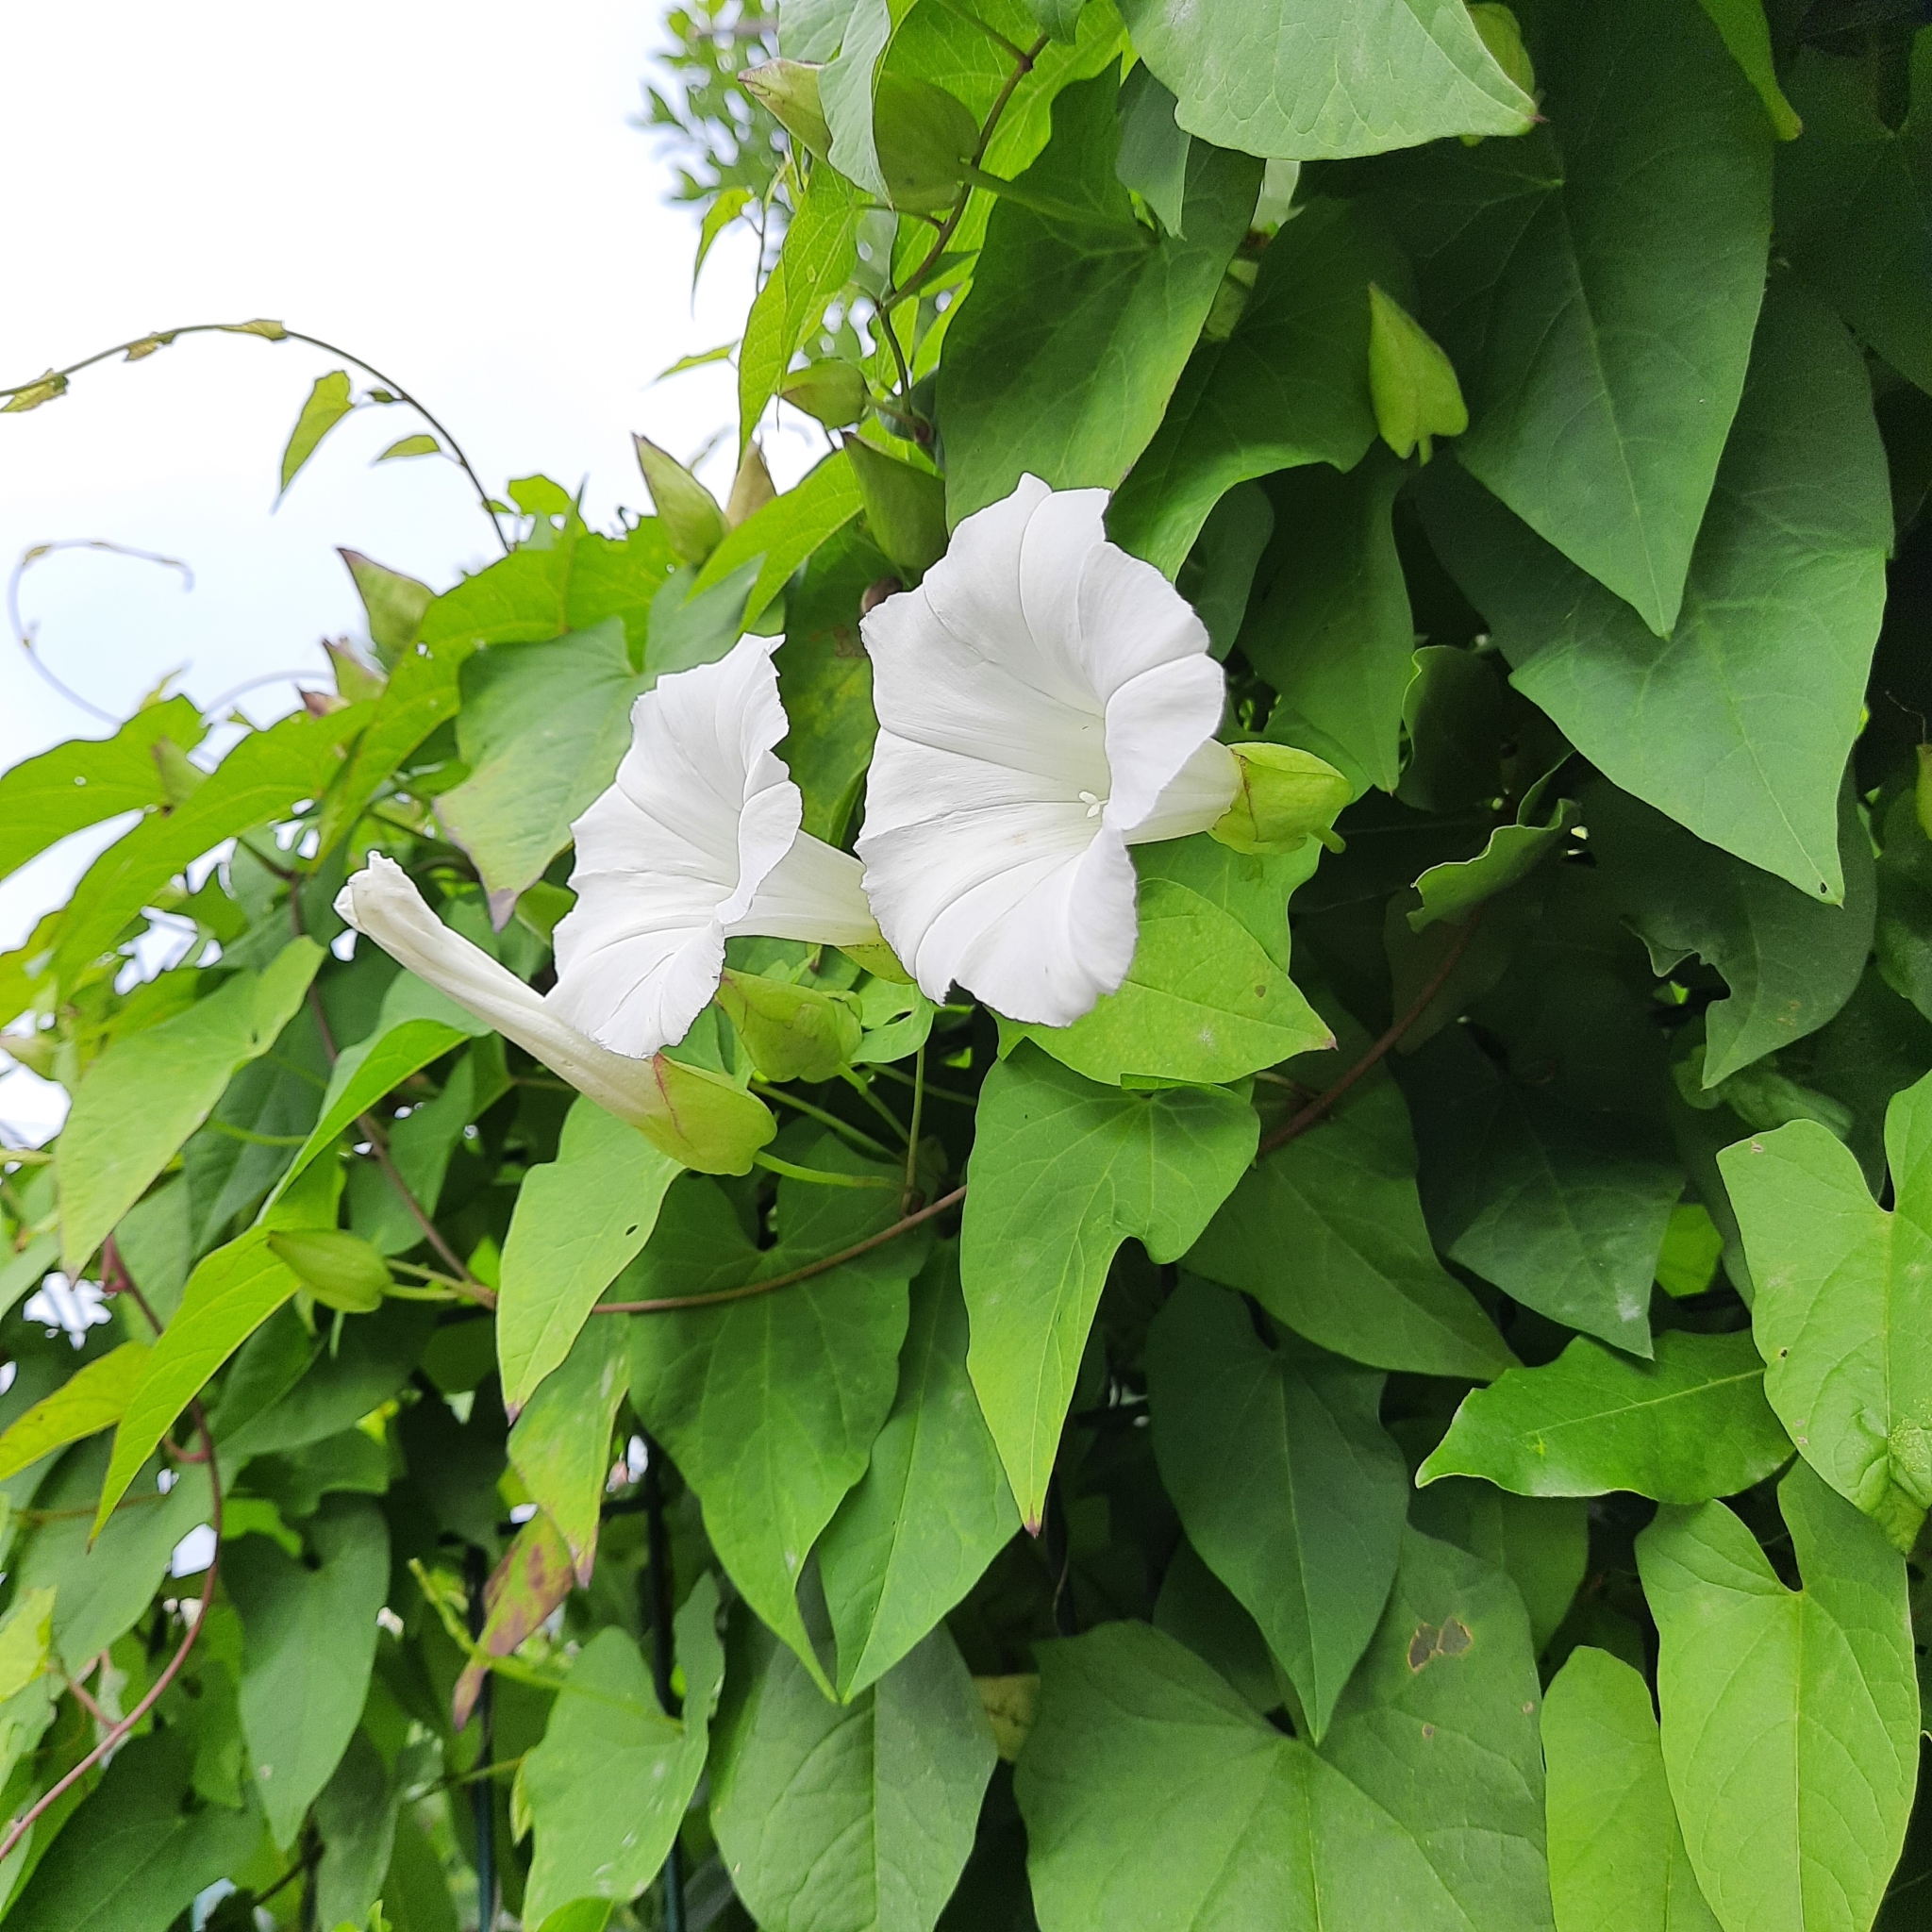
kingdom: Plantae
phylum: Tracheophyta
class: Magnoliopsida
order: Solanales
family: Convolvulaceae
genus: Calystegia
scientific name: Calystegia silvatica
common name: Large bindweed
